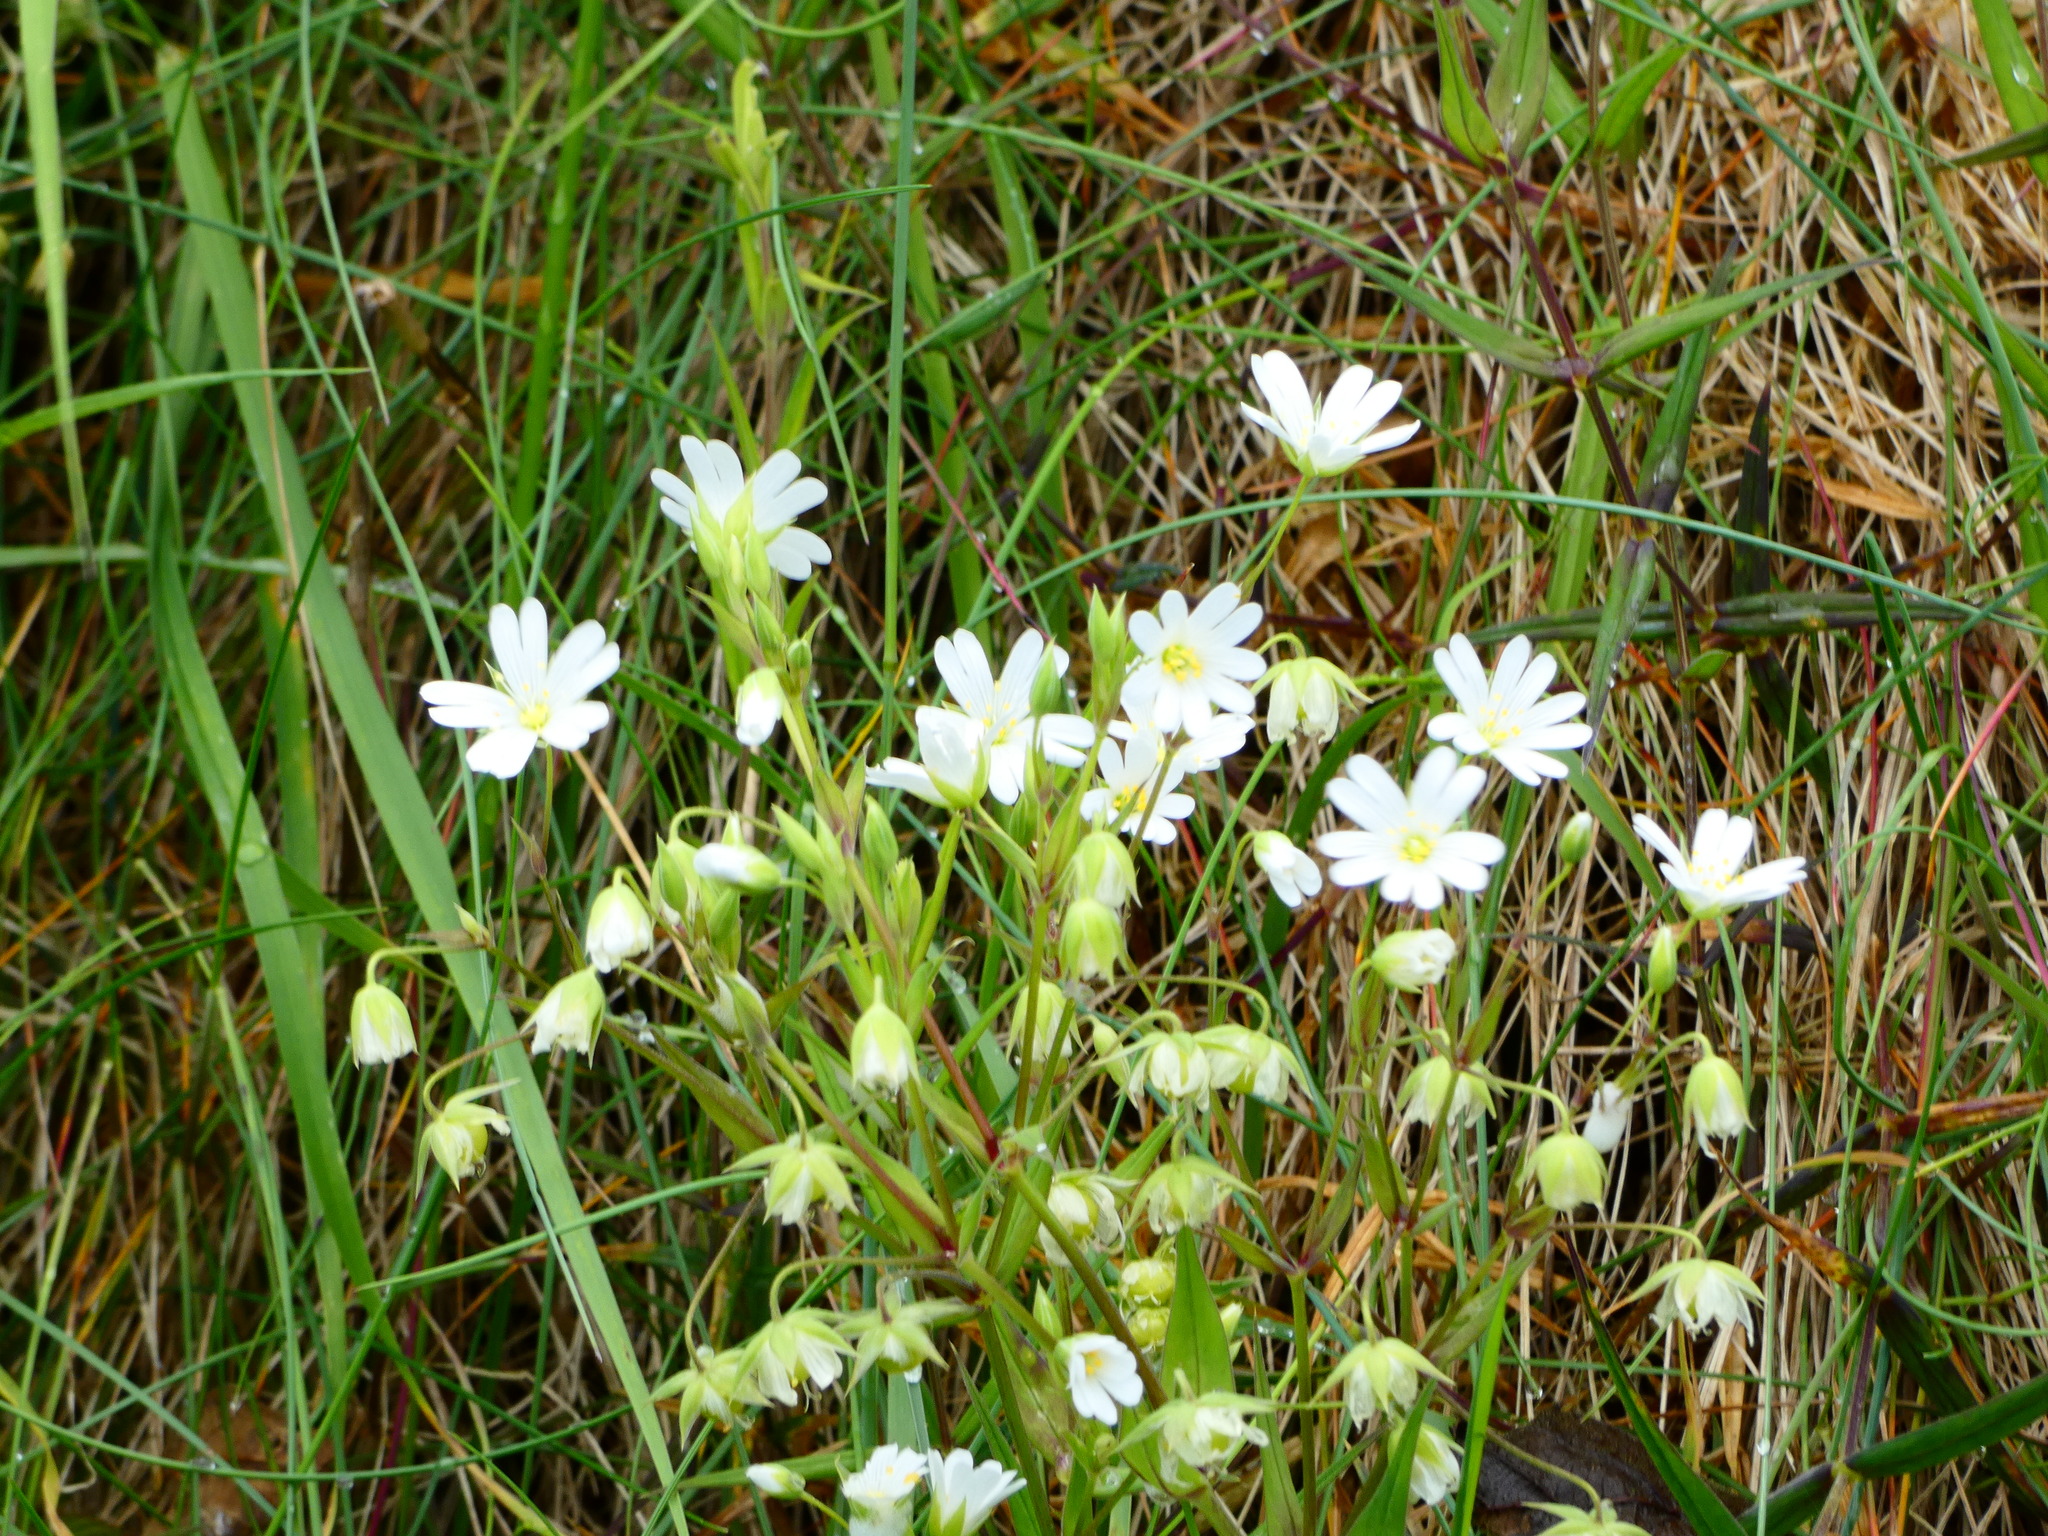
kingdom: Plantae
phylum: Tracheophyta
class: Magnoliopsida
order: Caryophyllales
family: Caryophyllaceae
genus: Rabelera
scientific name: Rabelera holostea
